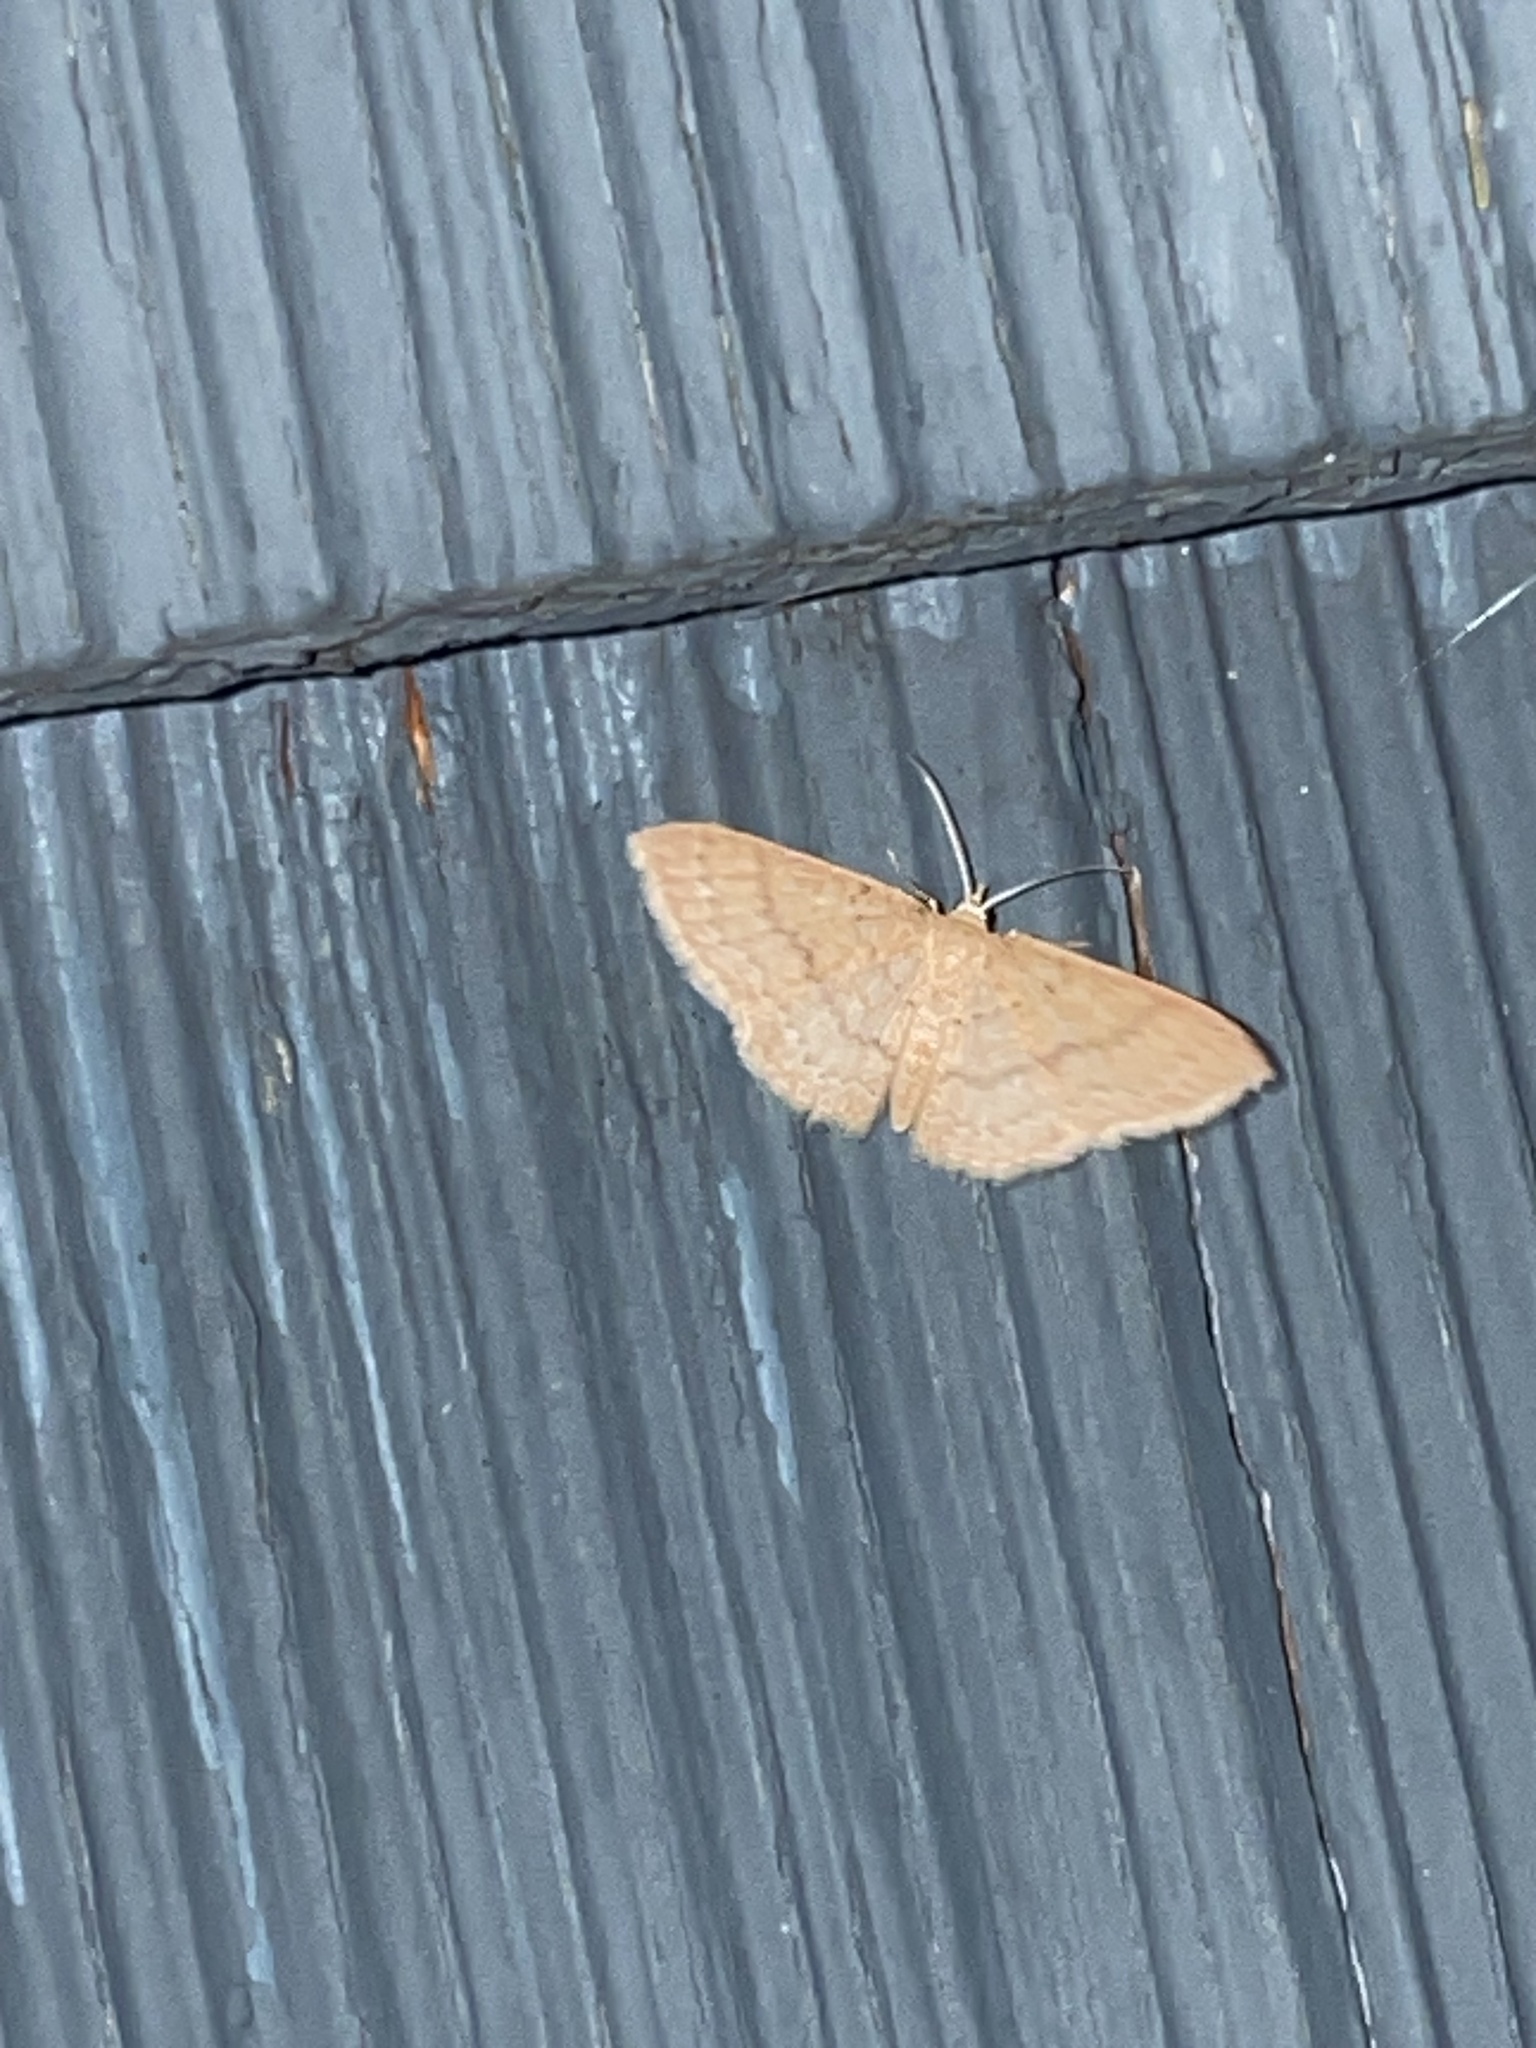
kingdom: Animalia
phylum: Arthropoda
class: Insecta
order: Lepidoptera
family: Geometridae
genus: Pleuroprucha
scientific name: Pleuroprucha insulsaria
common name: Common tan wave
